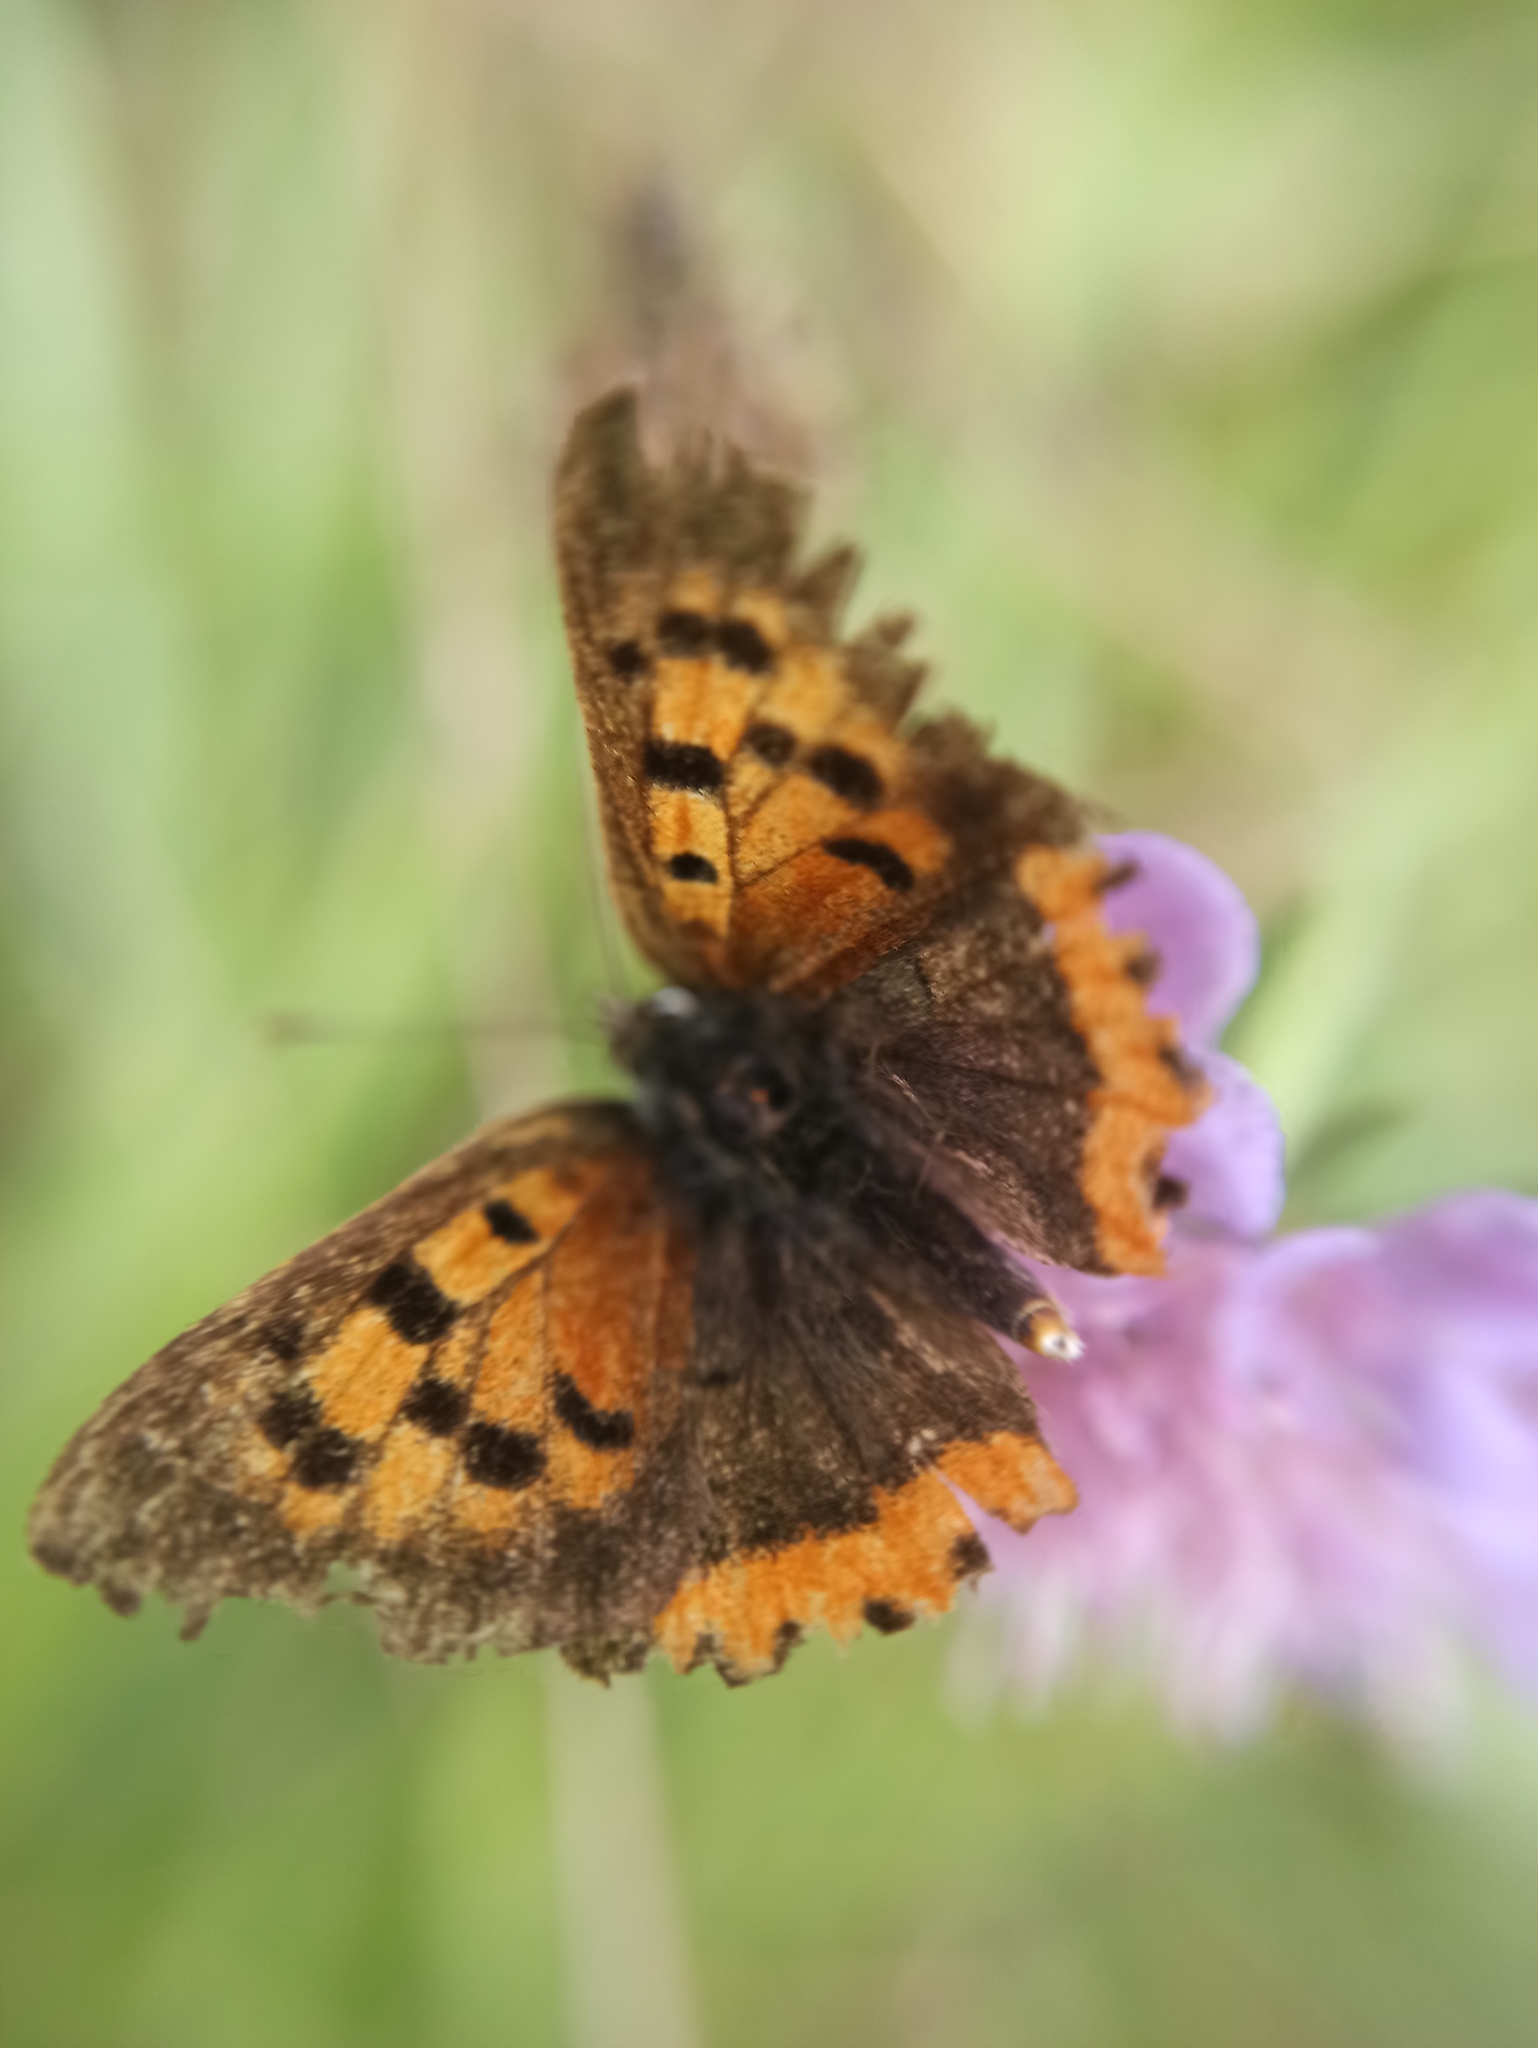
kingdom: Animalia
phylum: Arthropoda
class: Insecta
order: Lepidoptera
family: Lycaenidae
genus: Lycaena
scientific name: Lycaena phlaeas
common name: Small copper
